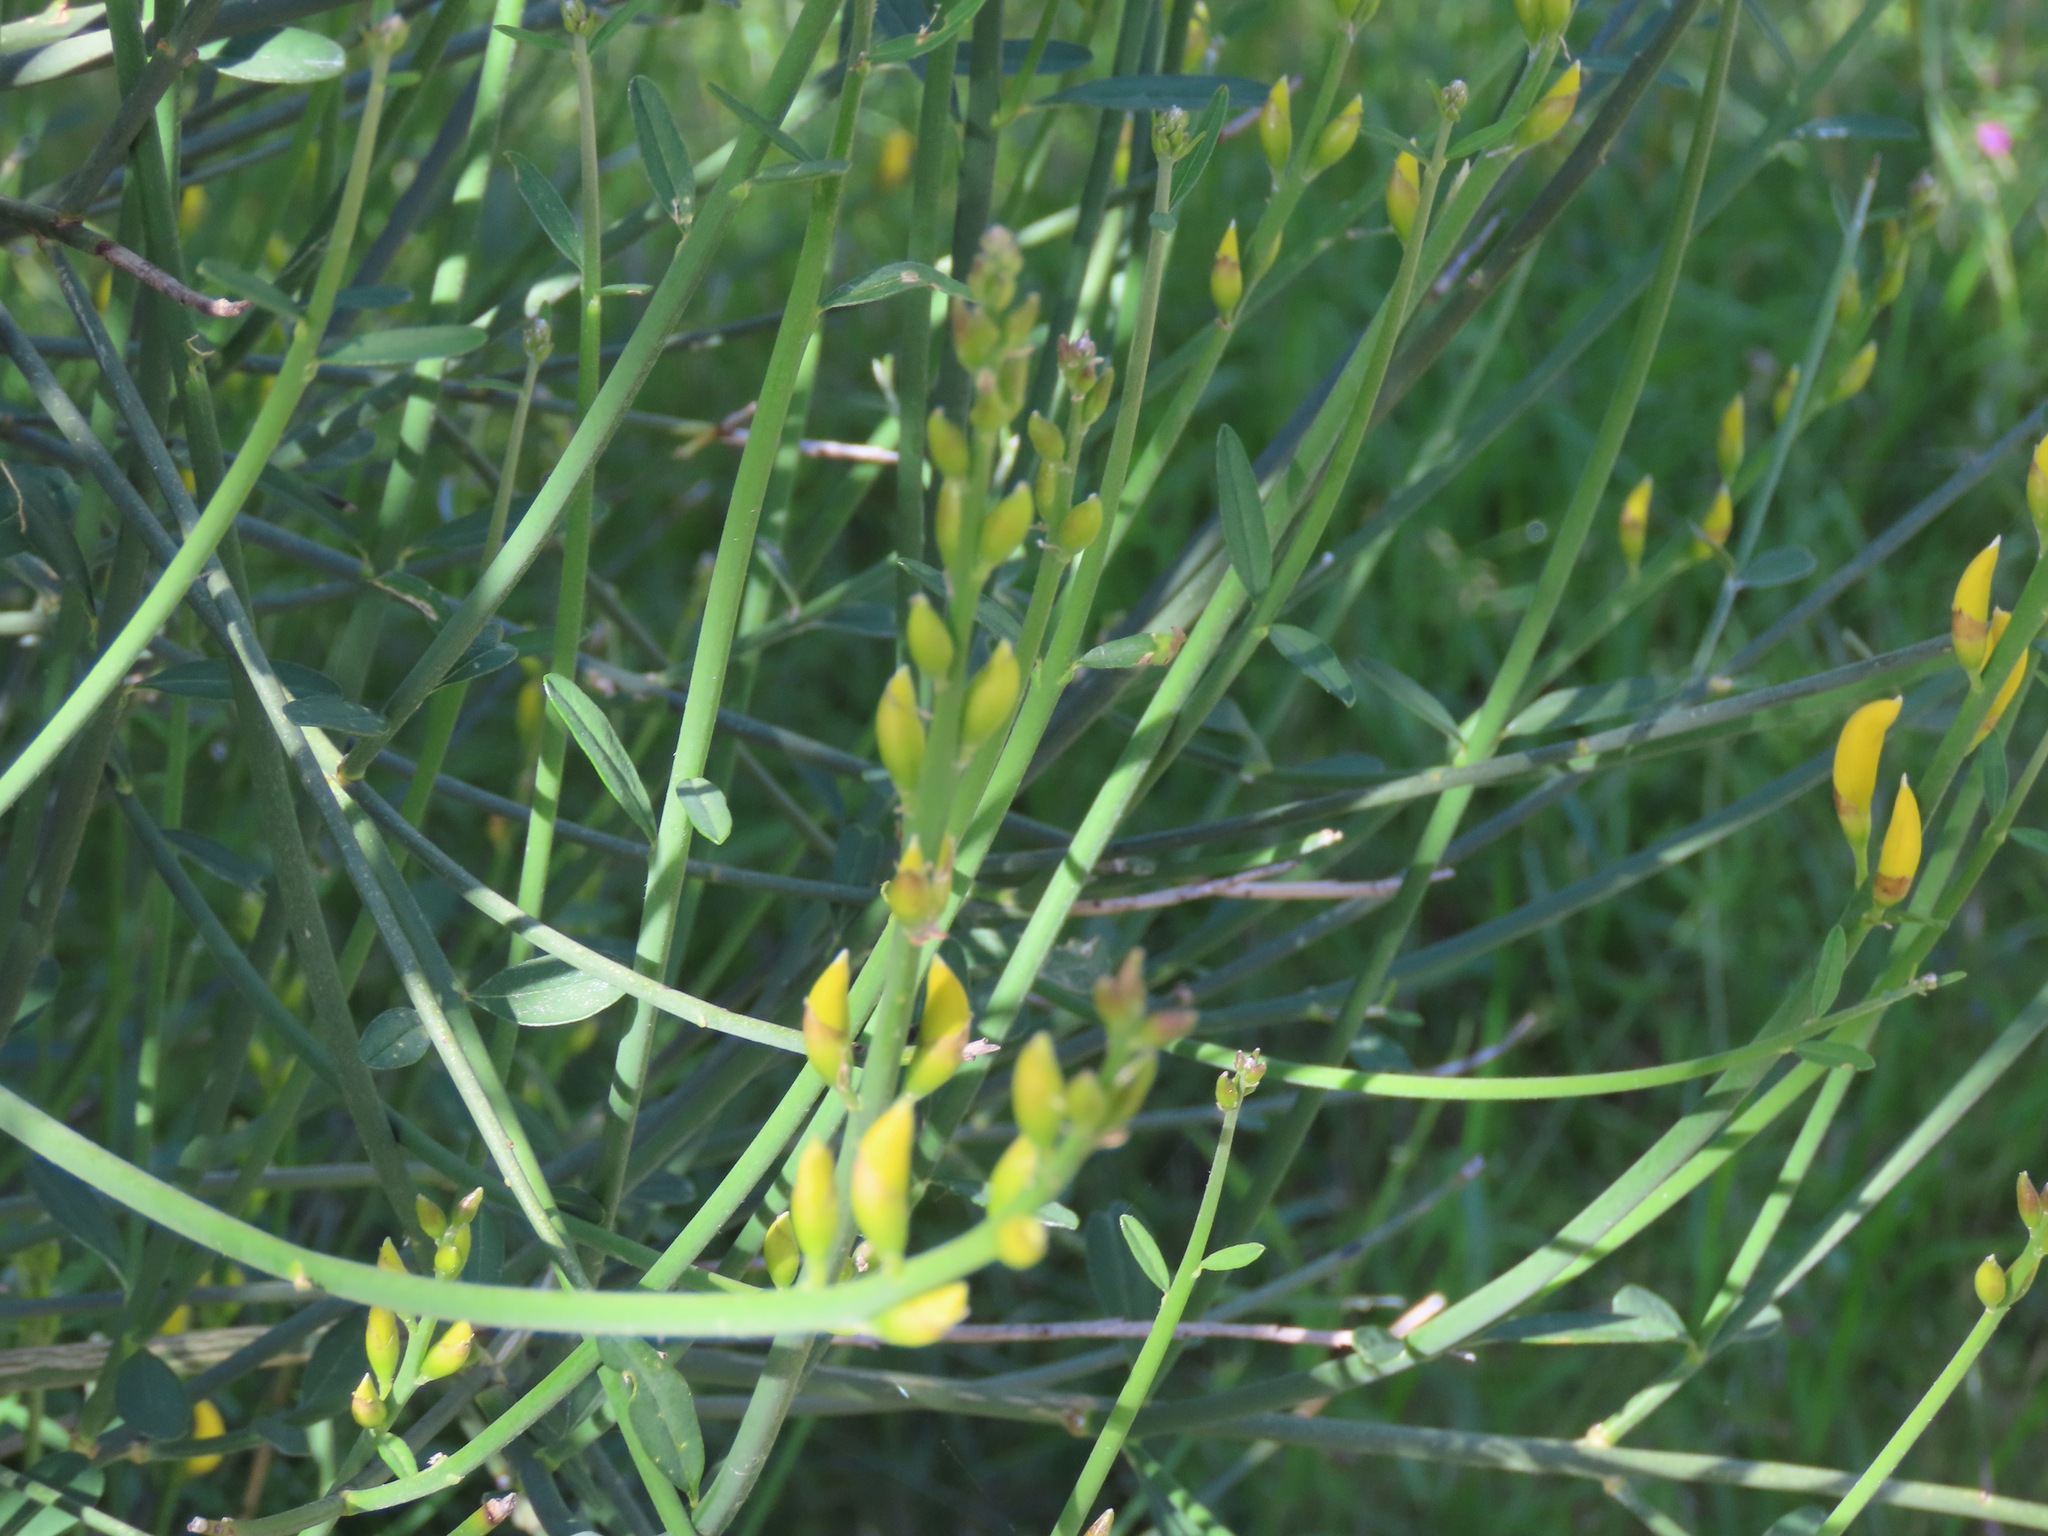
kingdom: Plantae
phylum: Tracheophyta
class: Magnoliopsida
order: Fabales
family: Fabaceae
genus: Spartium
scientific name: Spartium junceum
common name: Spanish broom
